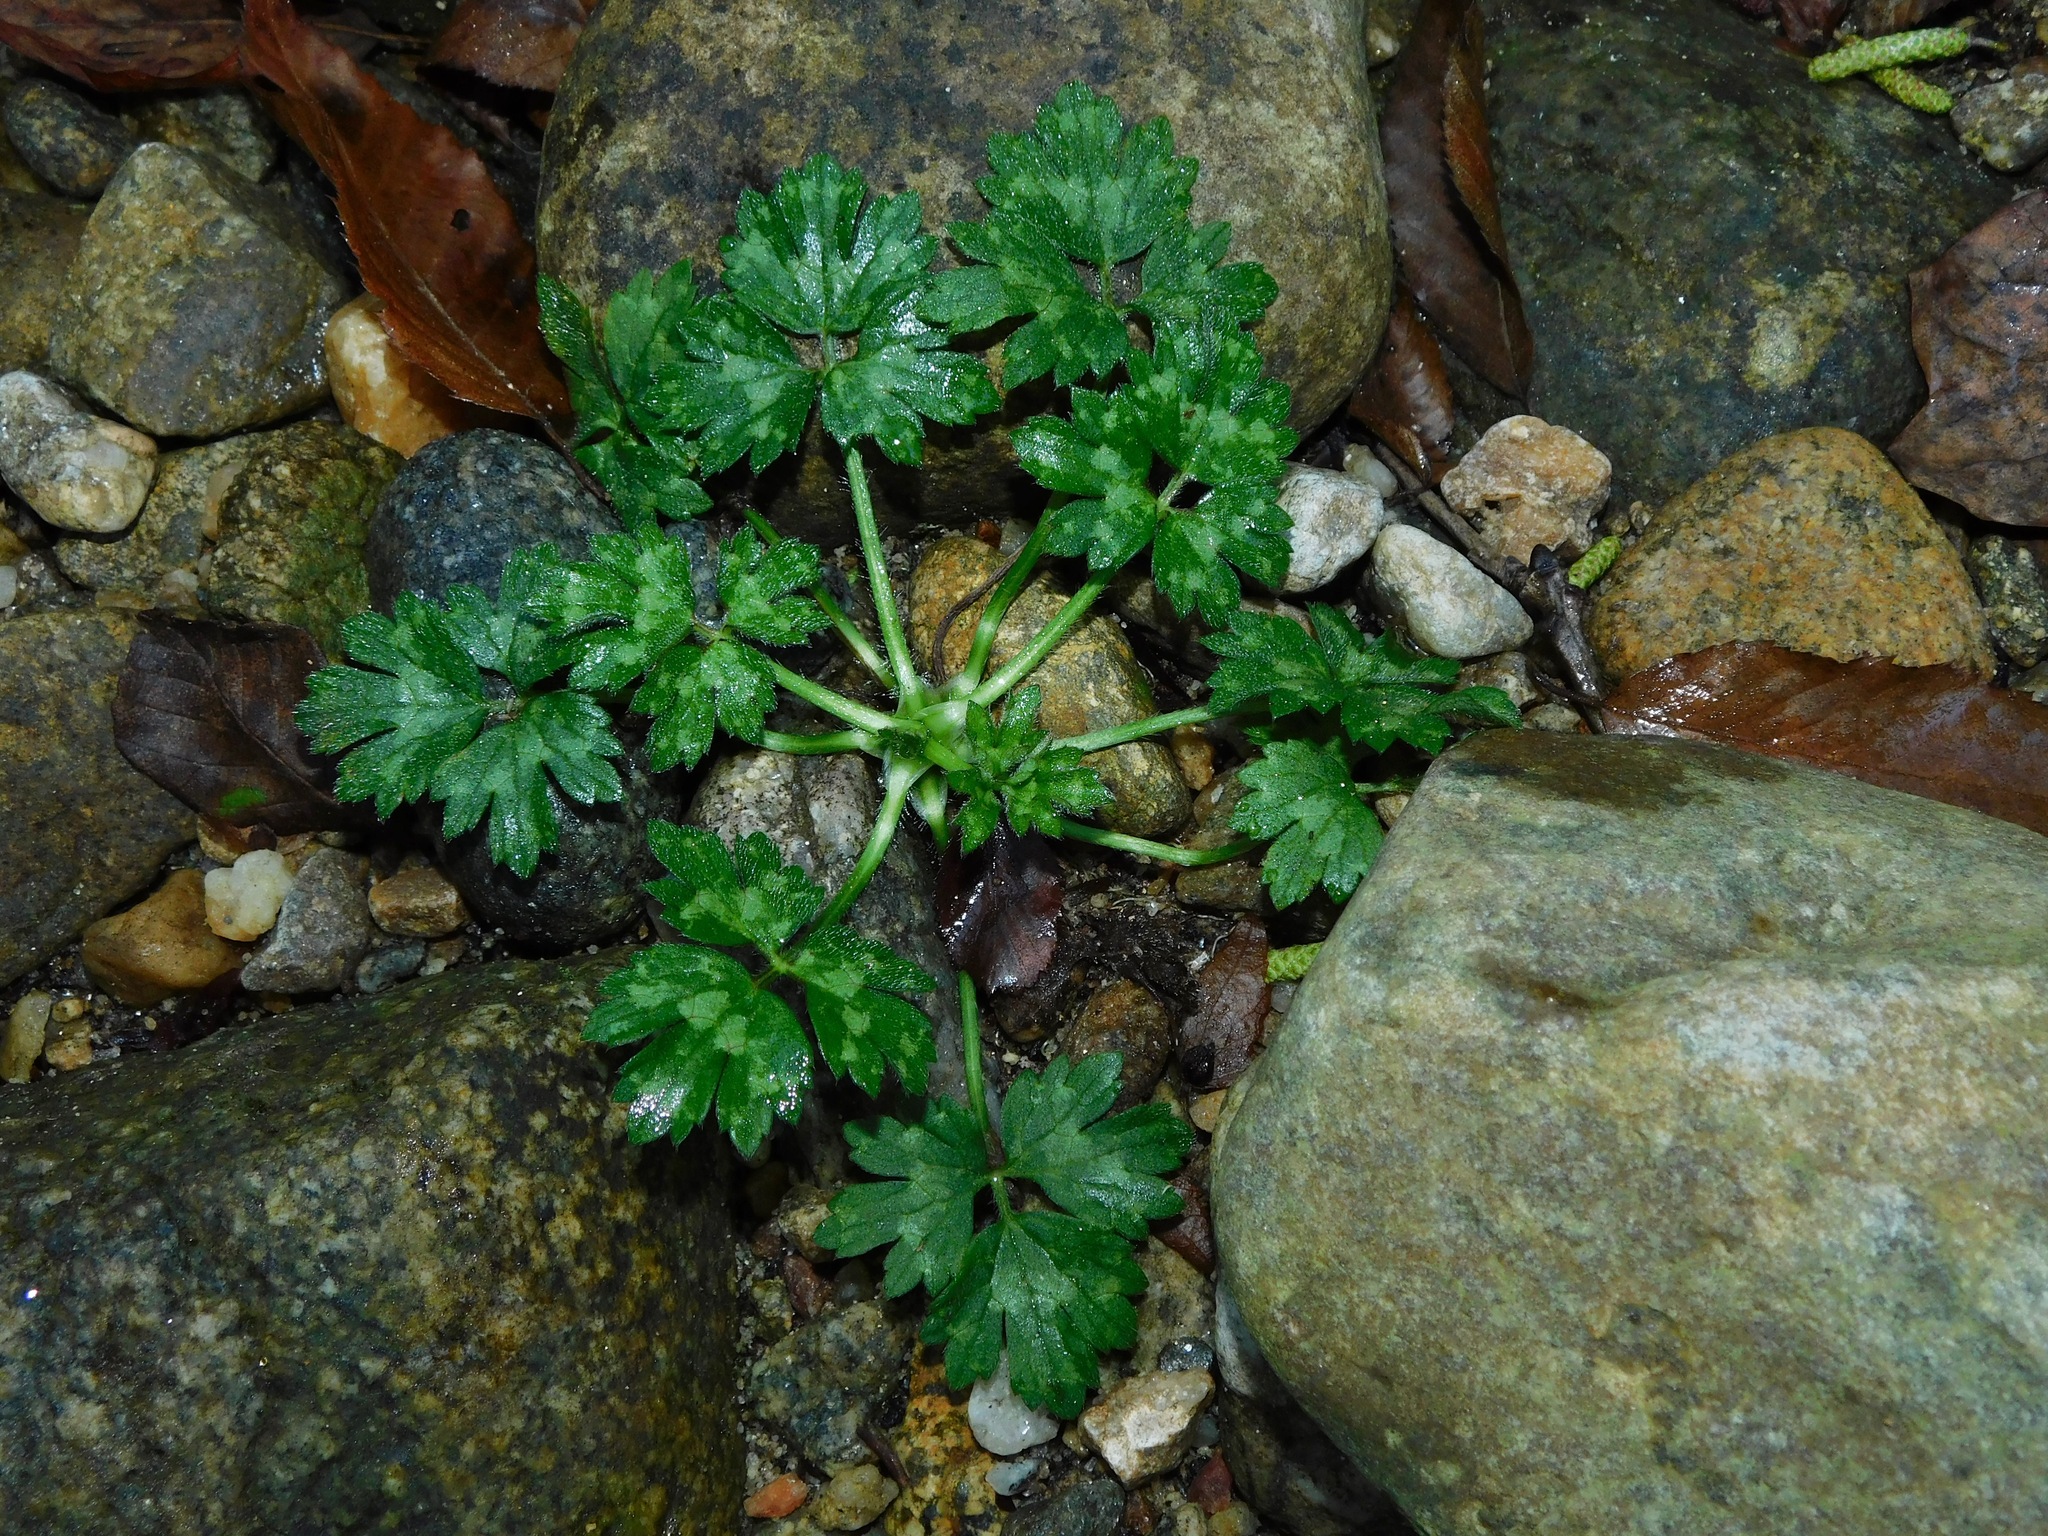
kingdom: Plantae
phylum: Tracheophyta
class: Magnoliopsida
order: Ranunculales
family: Ranunculaceae
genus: Ranunculus
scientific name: Ranunculus repens
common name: Creeping buttercup
